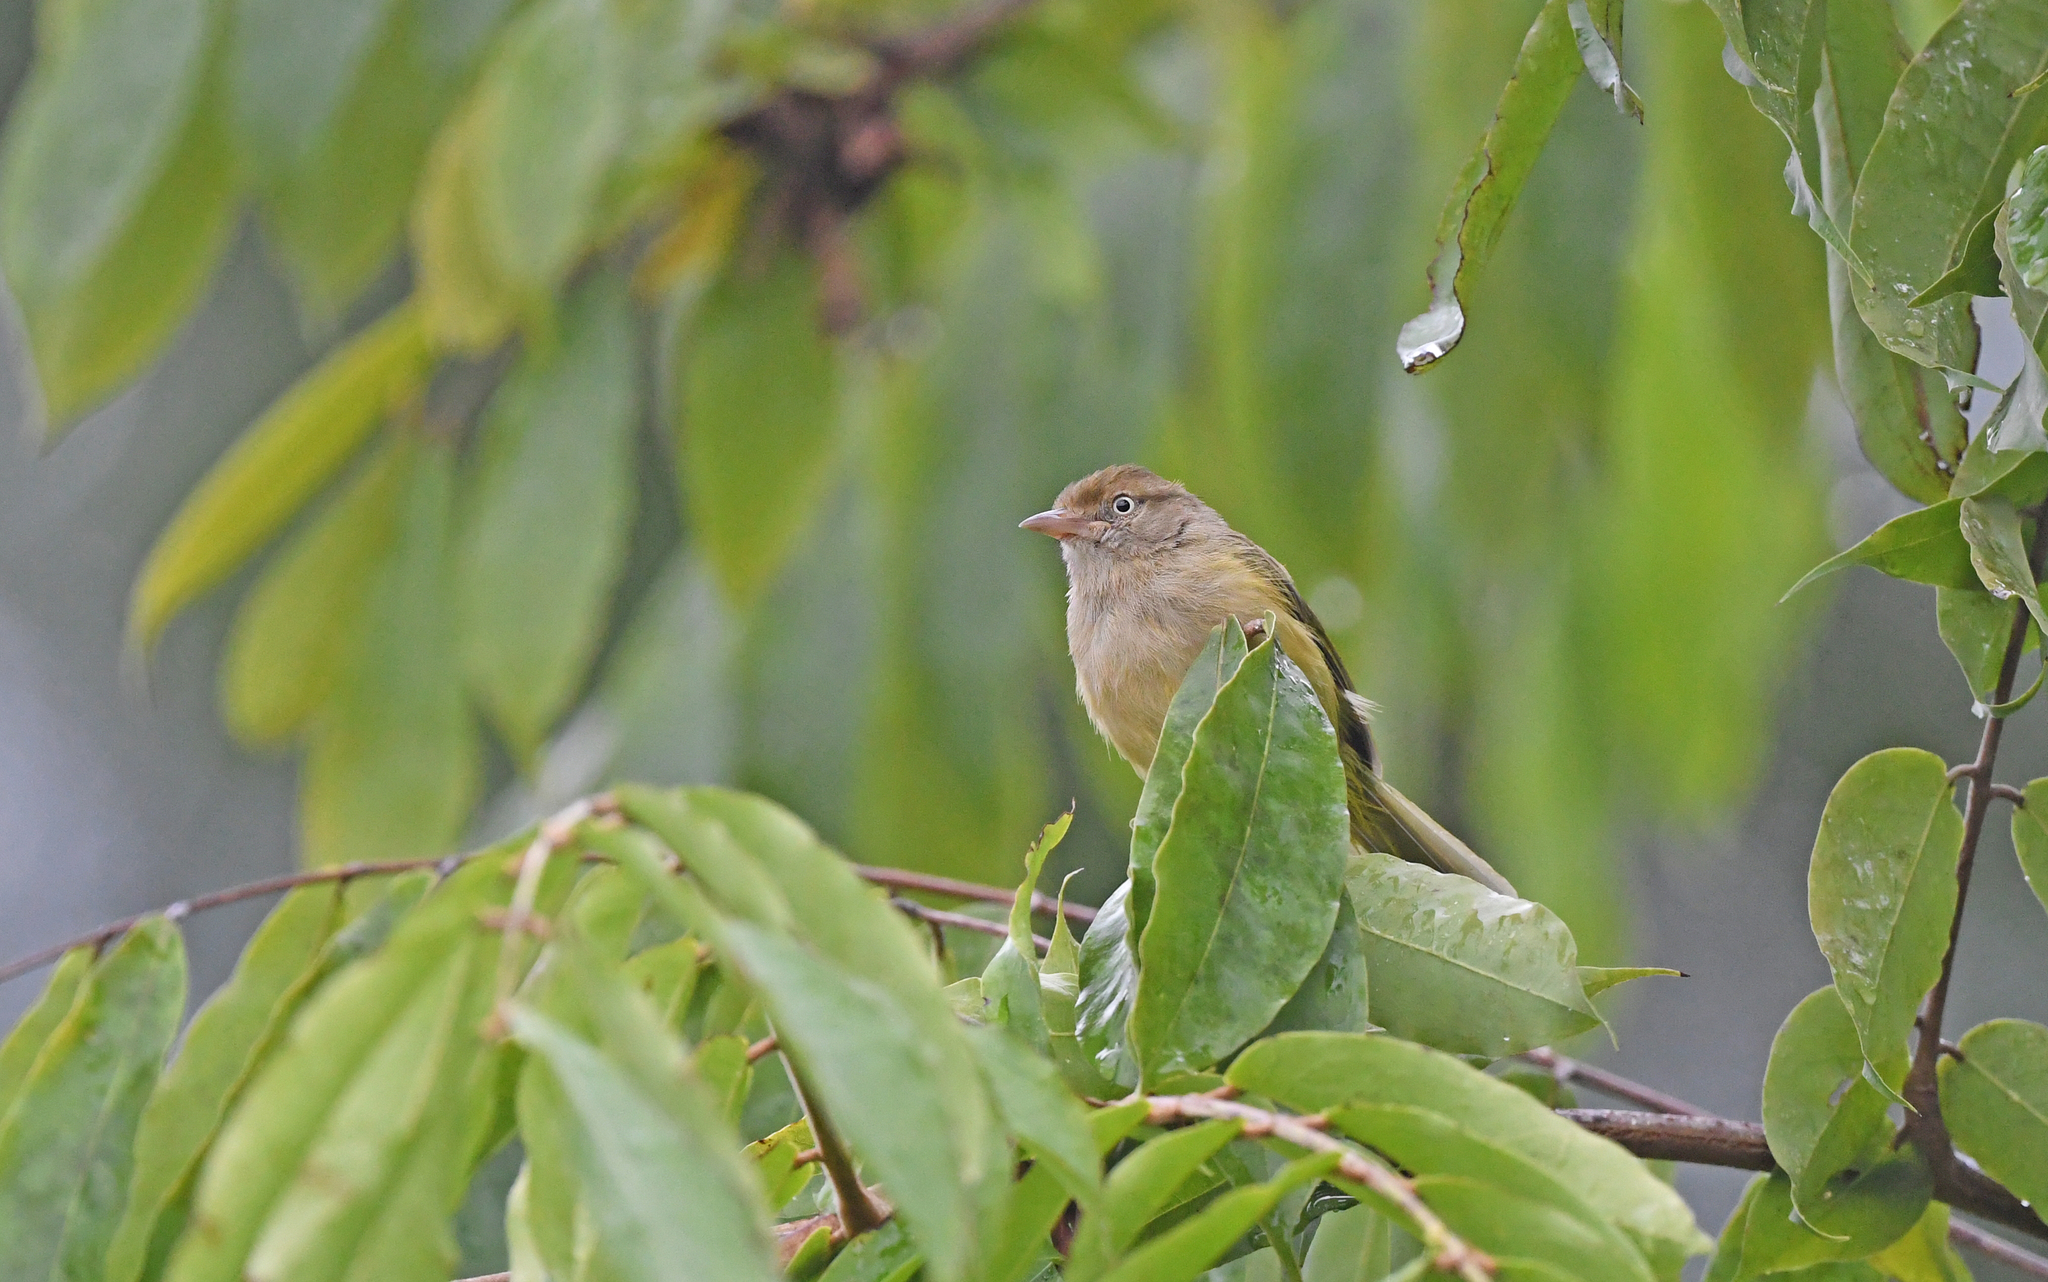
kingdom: Animalia
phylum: Chordata
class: Aves
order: Passeriformes
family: Vireonidae
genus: Hylophilus
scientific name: Hylophilus flavipes
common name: Scrub greenlet
